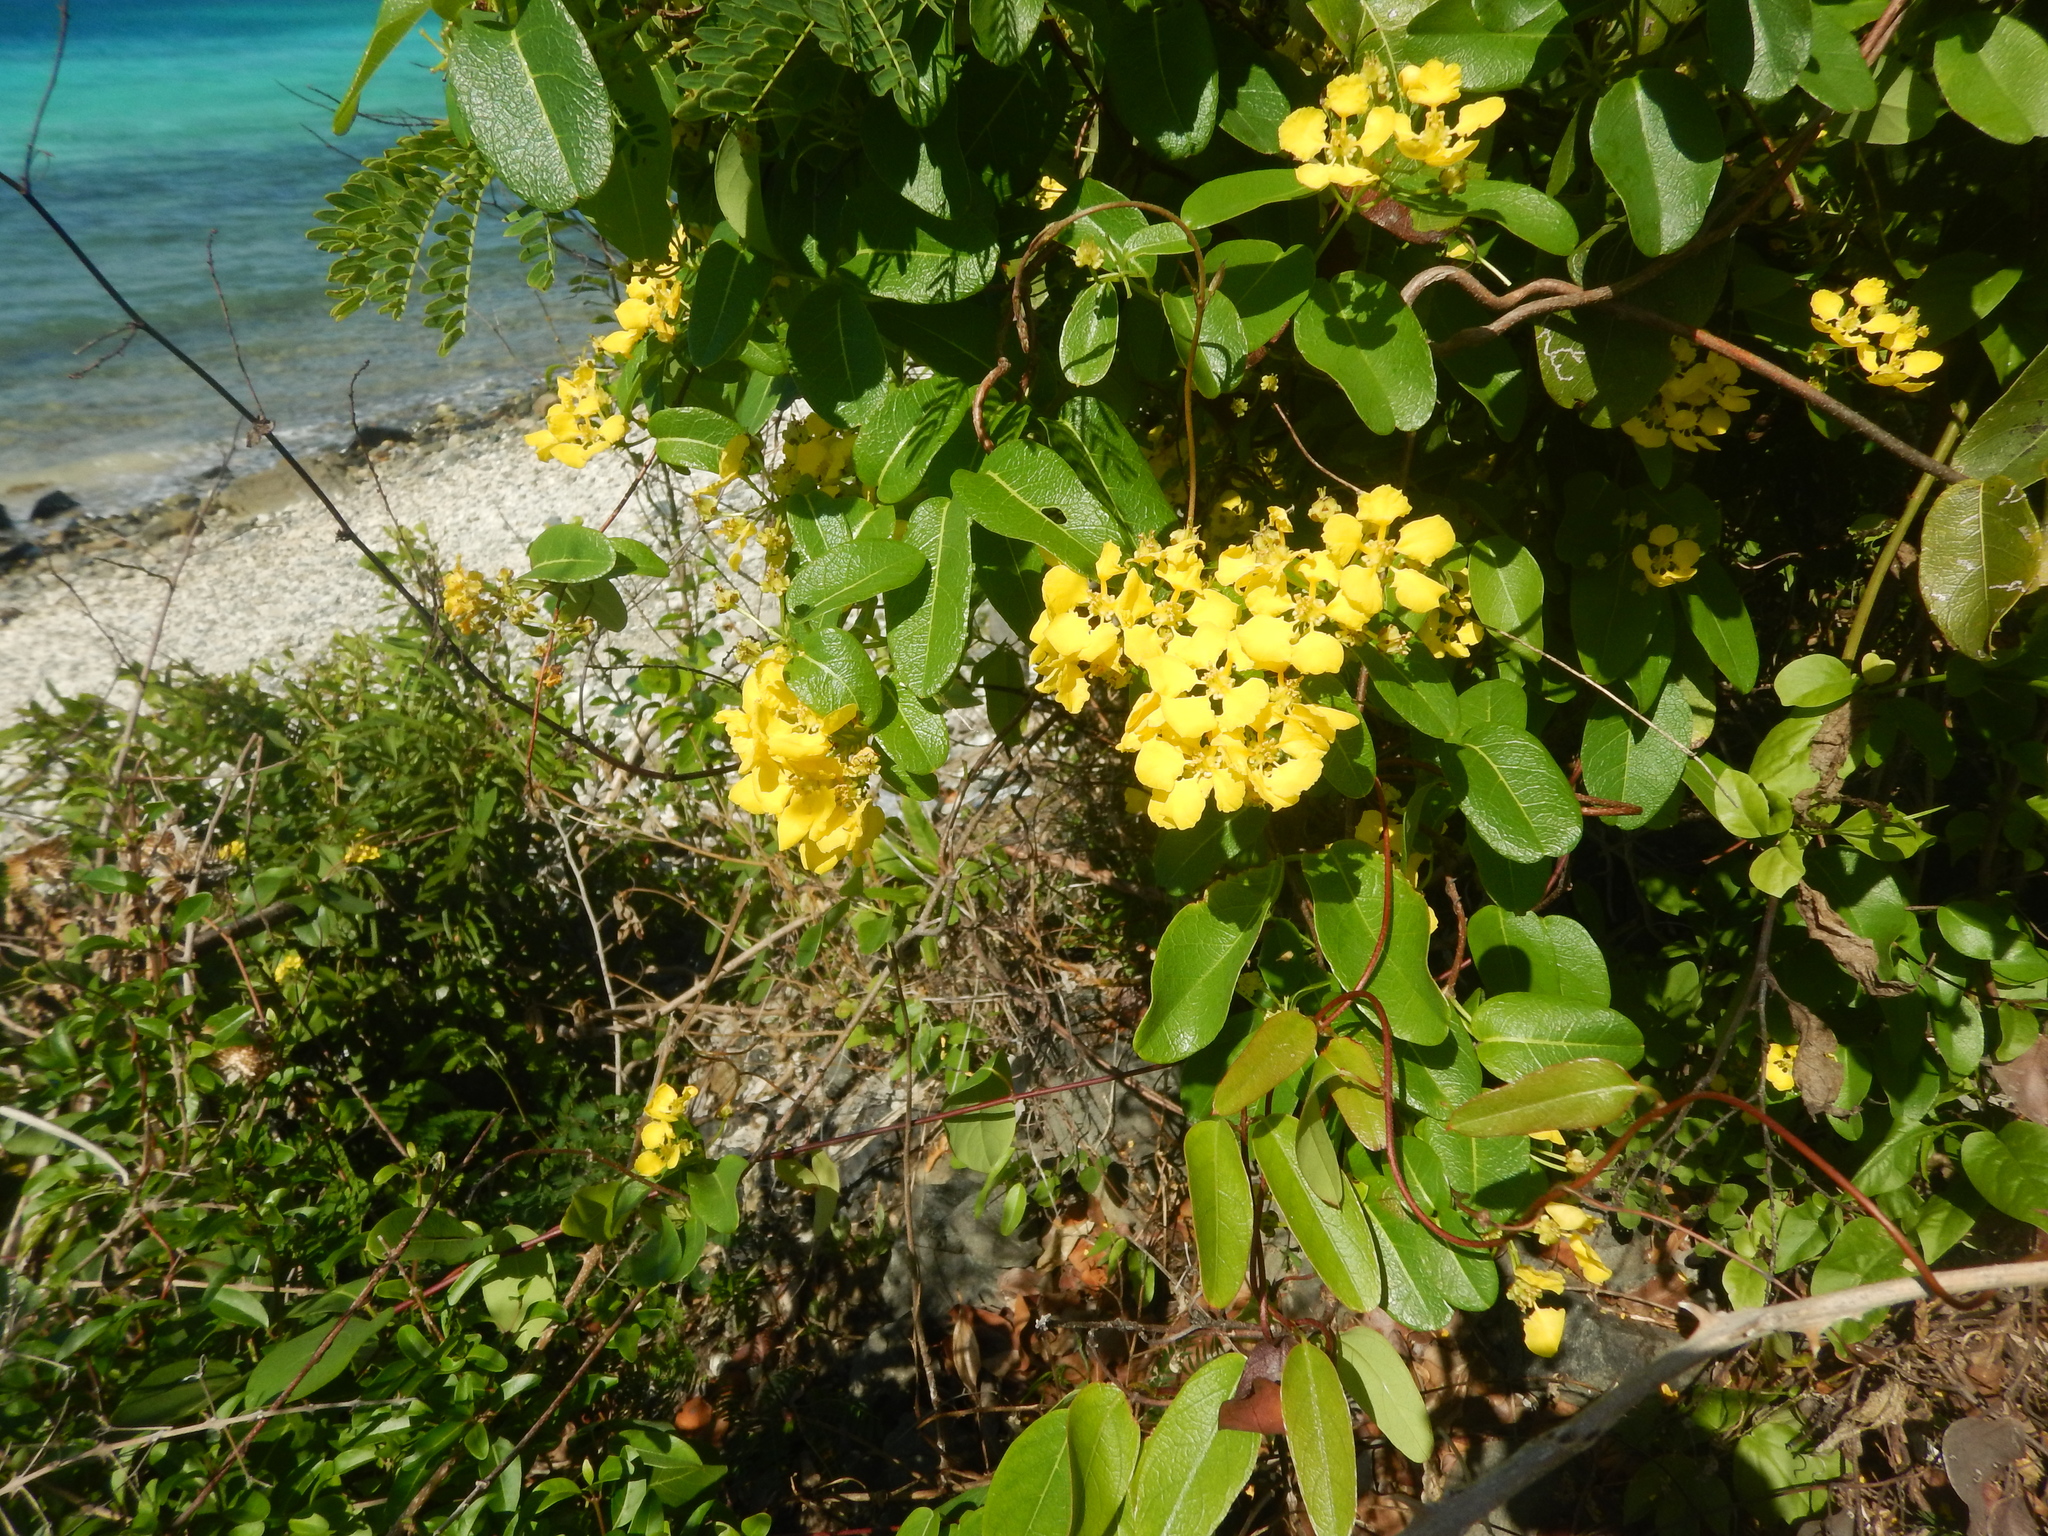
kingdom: Plantae
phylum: Tracheophyta
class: Magnoliopsida
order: Malpighiales
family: Malpighiaceae
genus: Stigmaphyllon
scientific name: Stigmaphyllon emarginatum
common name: Monarch amazonvine
